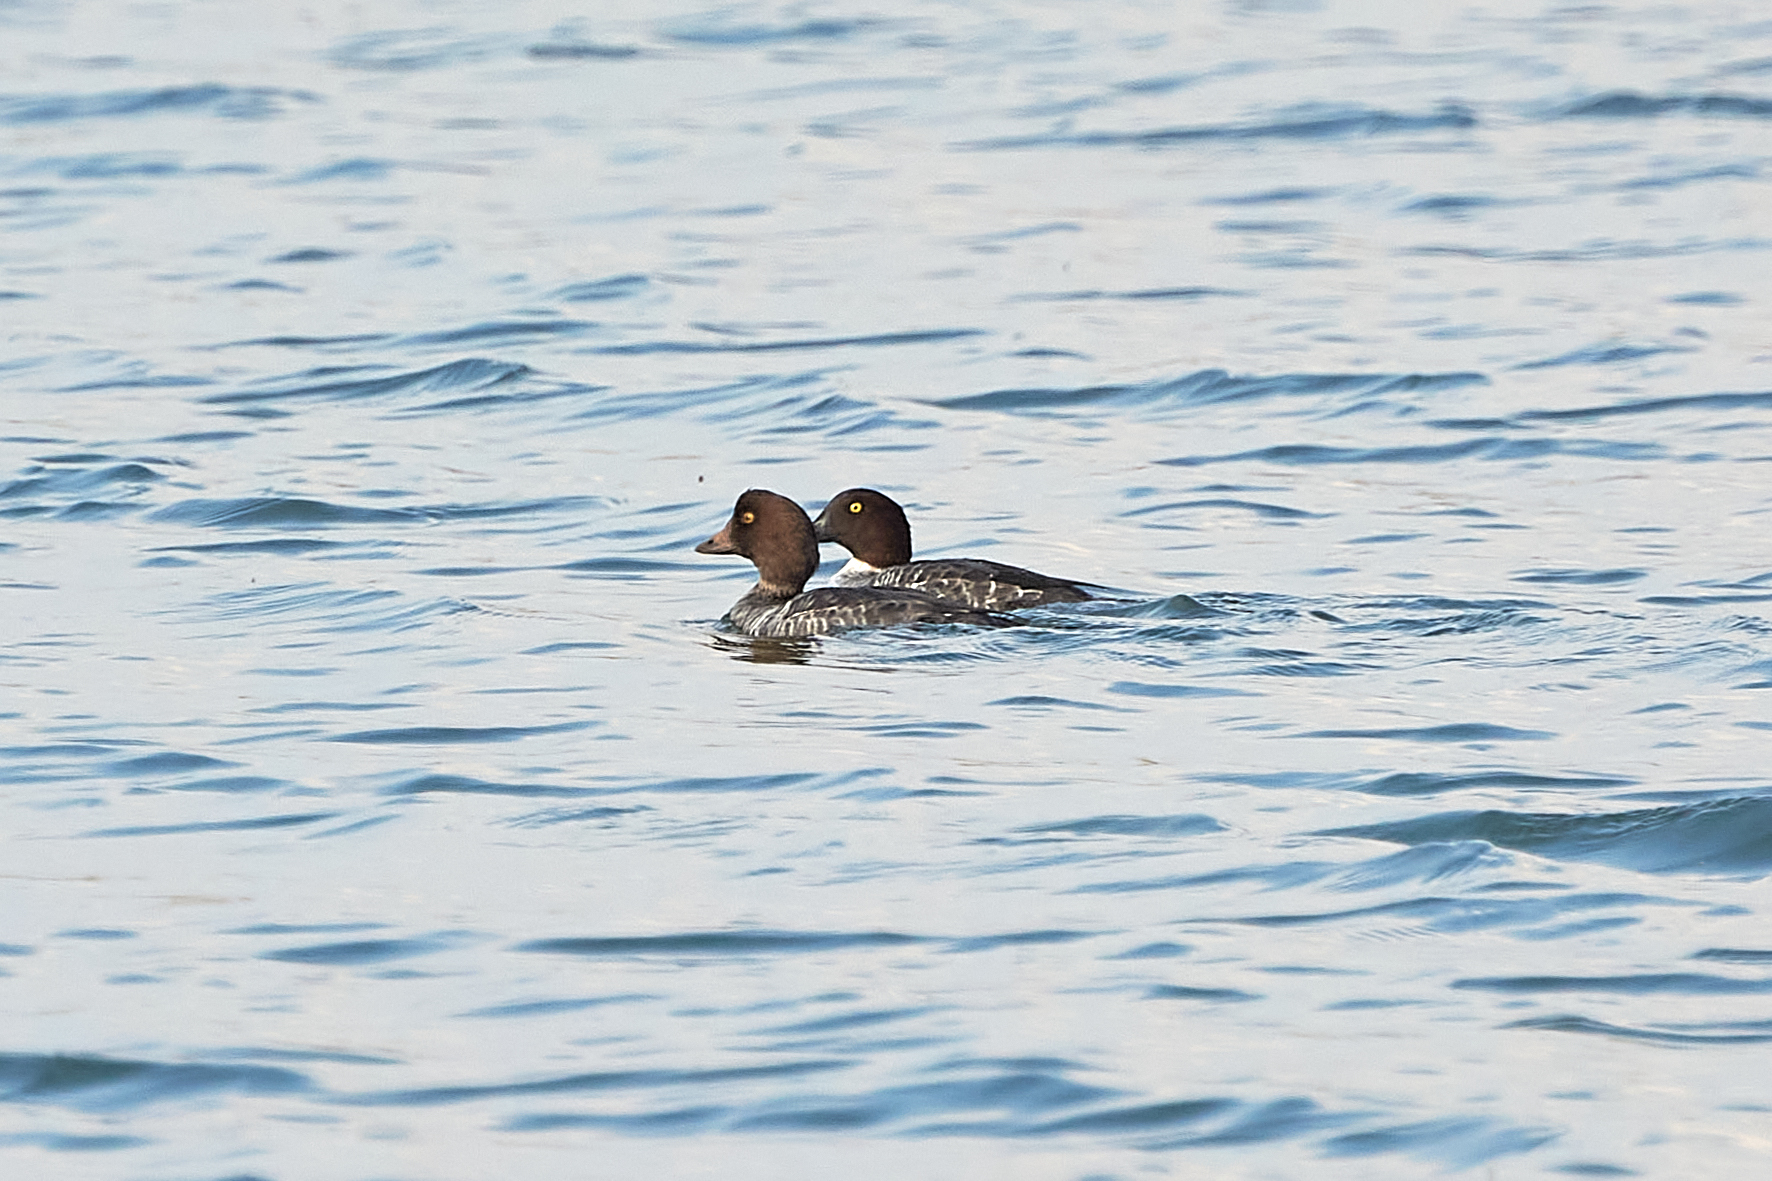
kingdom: Animalia
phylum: Chordata
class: Aves
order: Anseriformes
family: Anatidae
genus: Bucephala
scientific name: Bucephala clangula
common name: Common goldeneye
